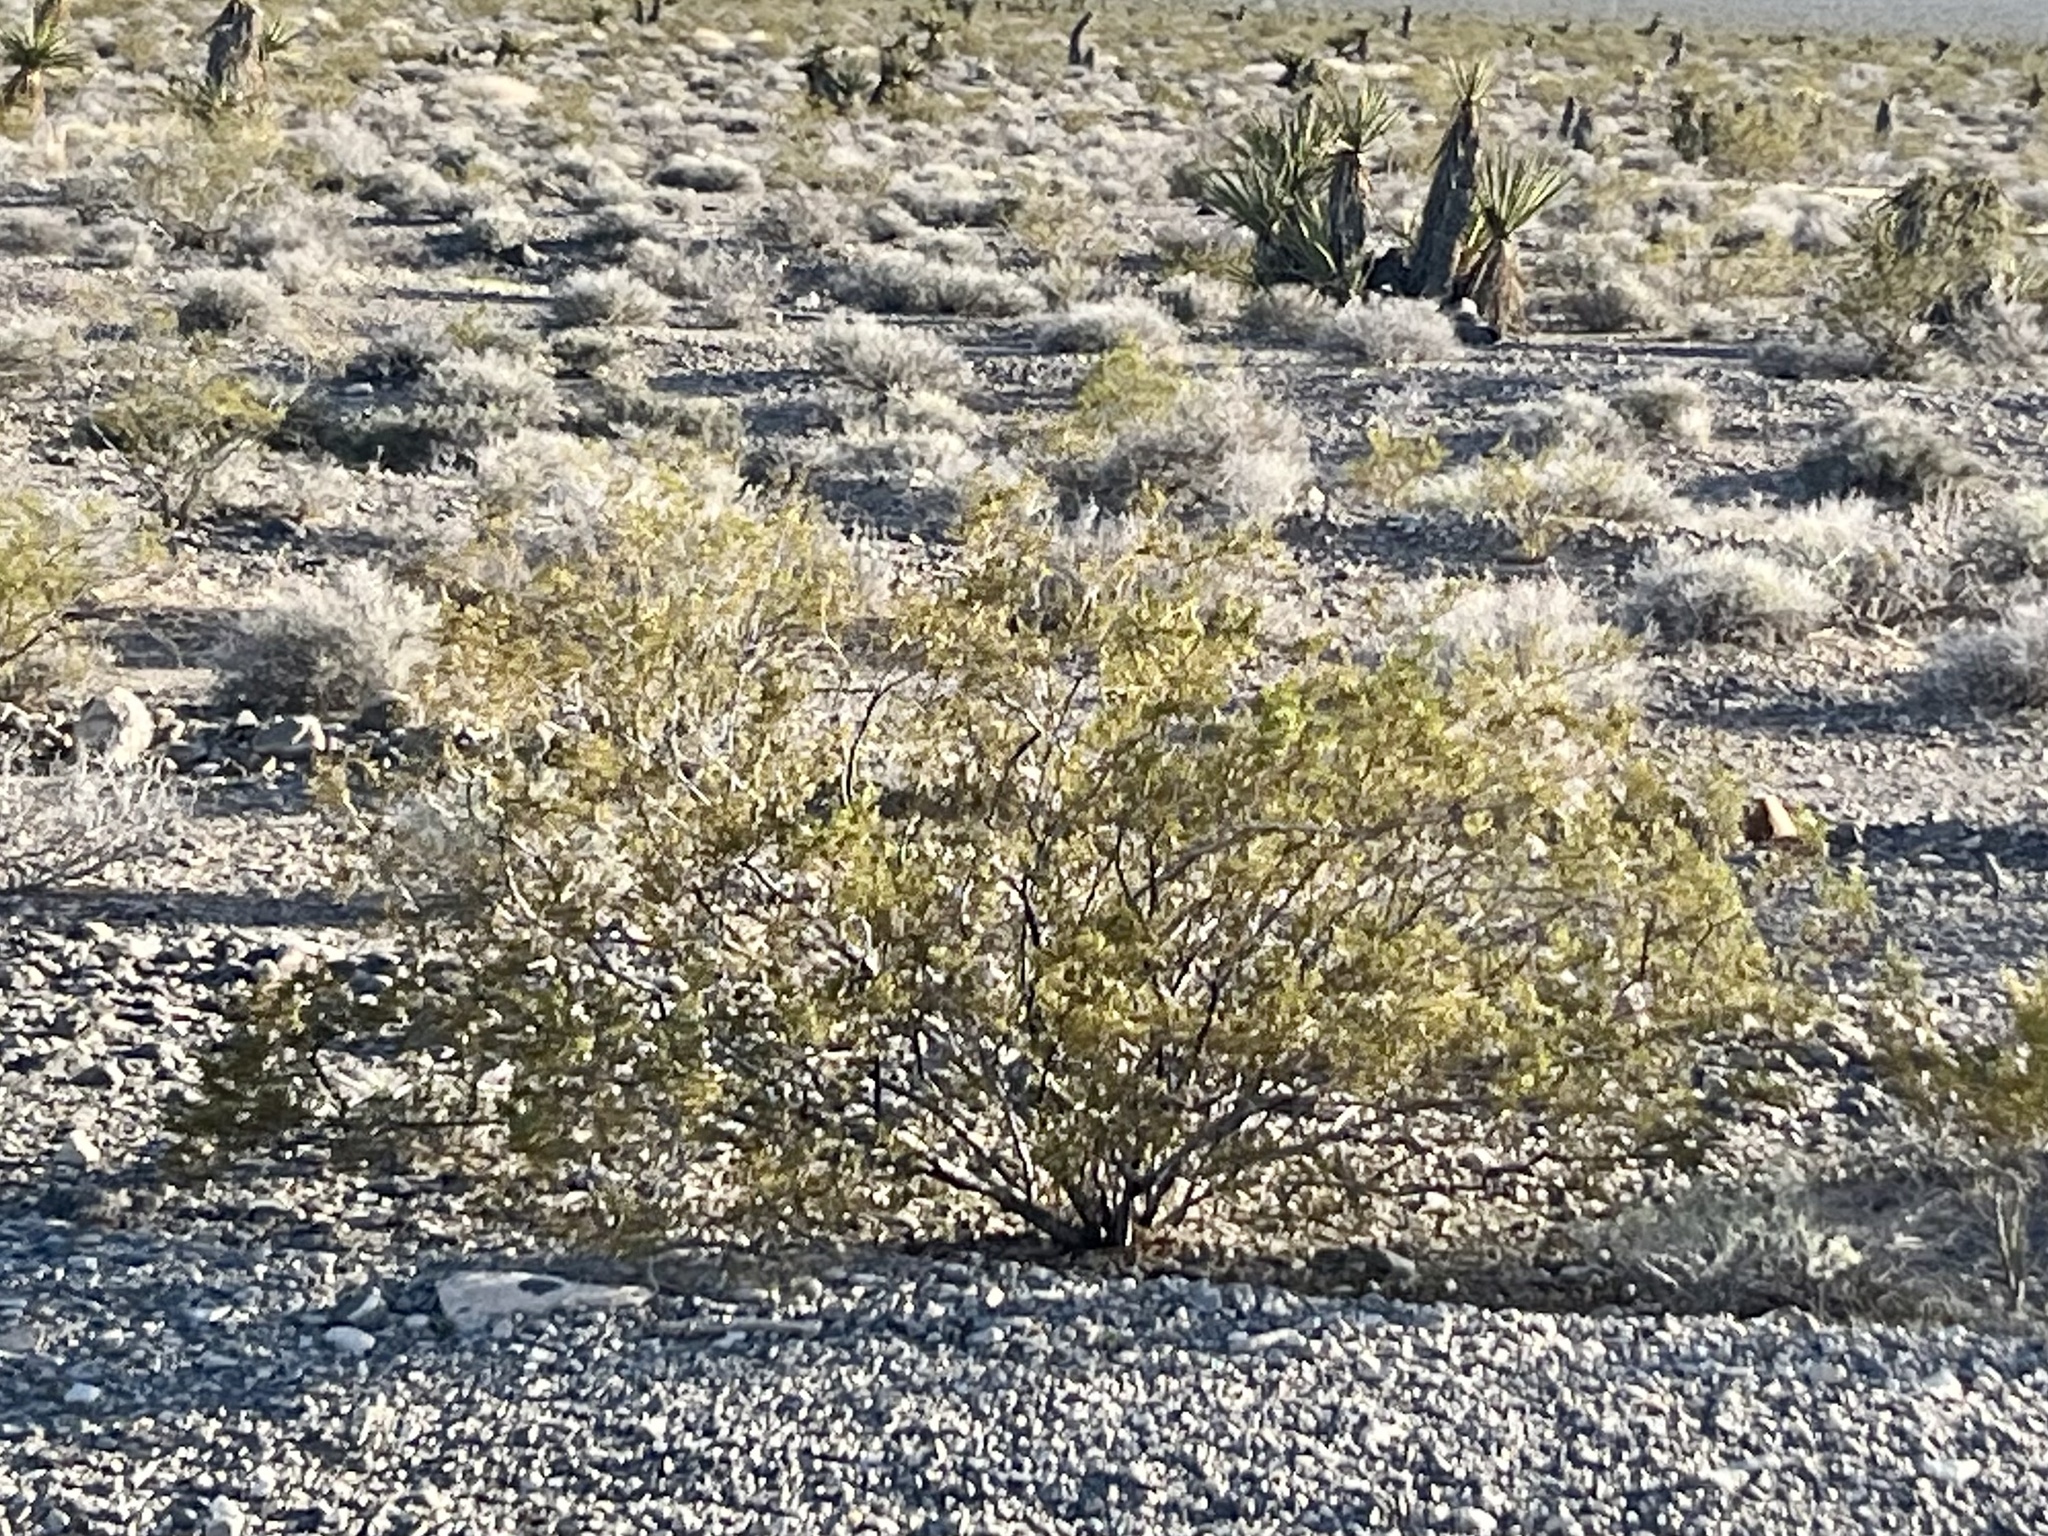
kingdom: Plantae
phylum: Tracheophyta
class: Magnoliopsida
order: Zygophyllales
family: Zygophyllaceae
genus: Larrea
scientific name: Larrea tridentata
